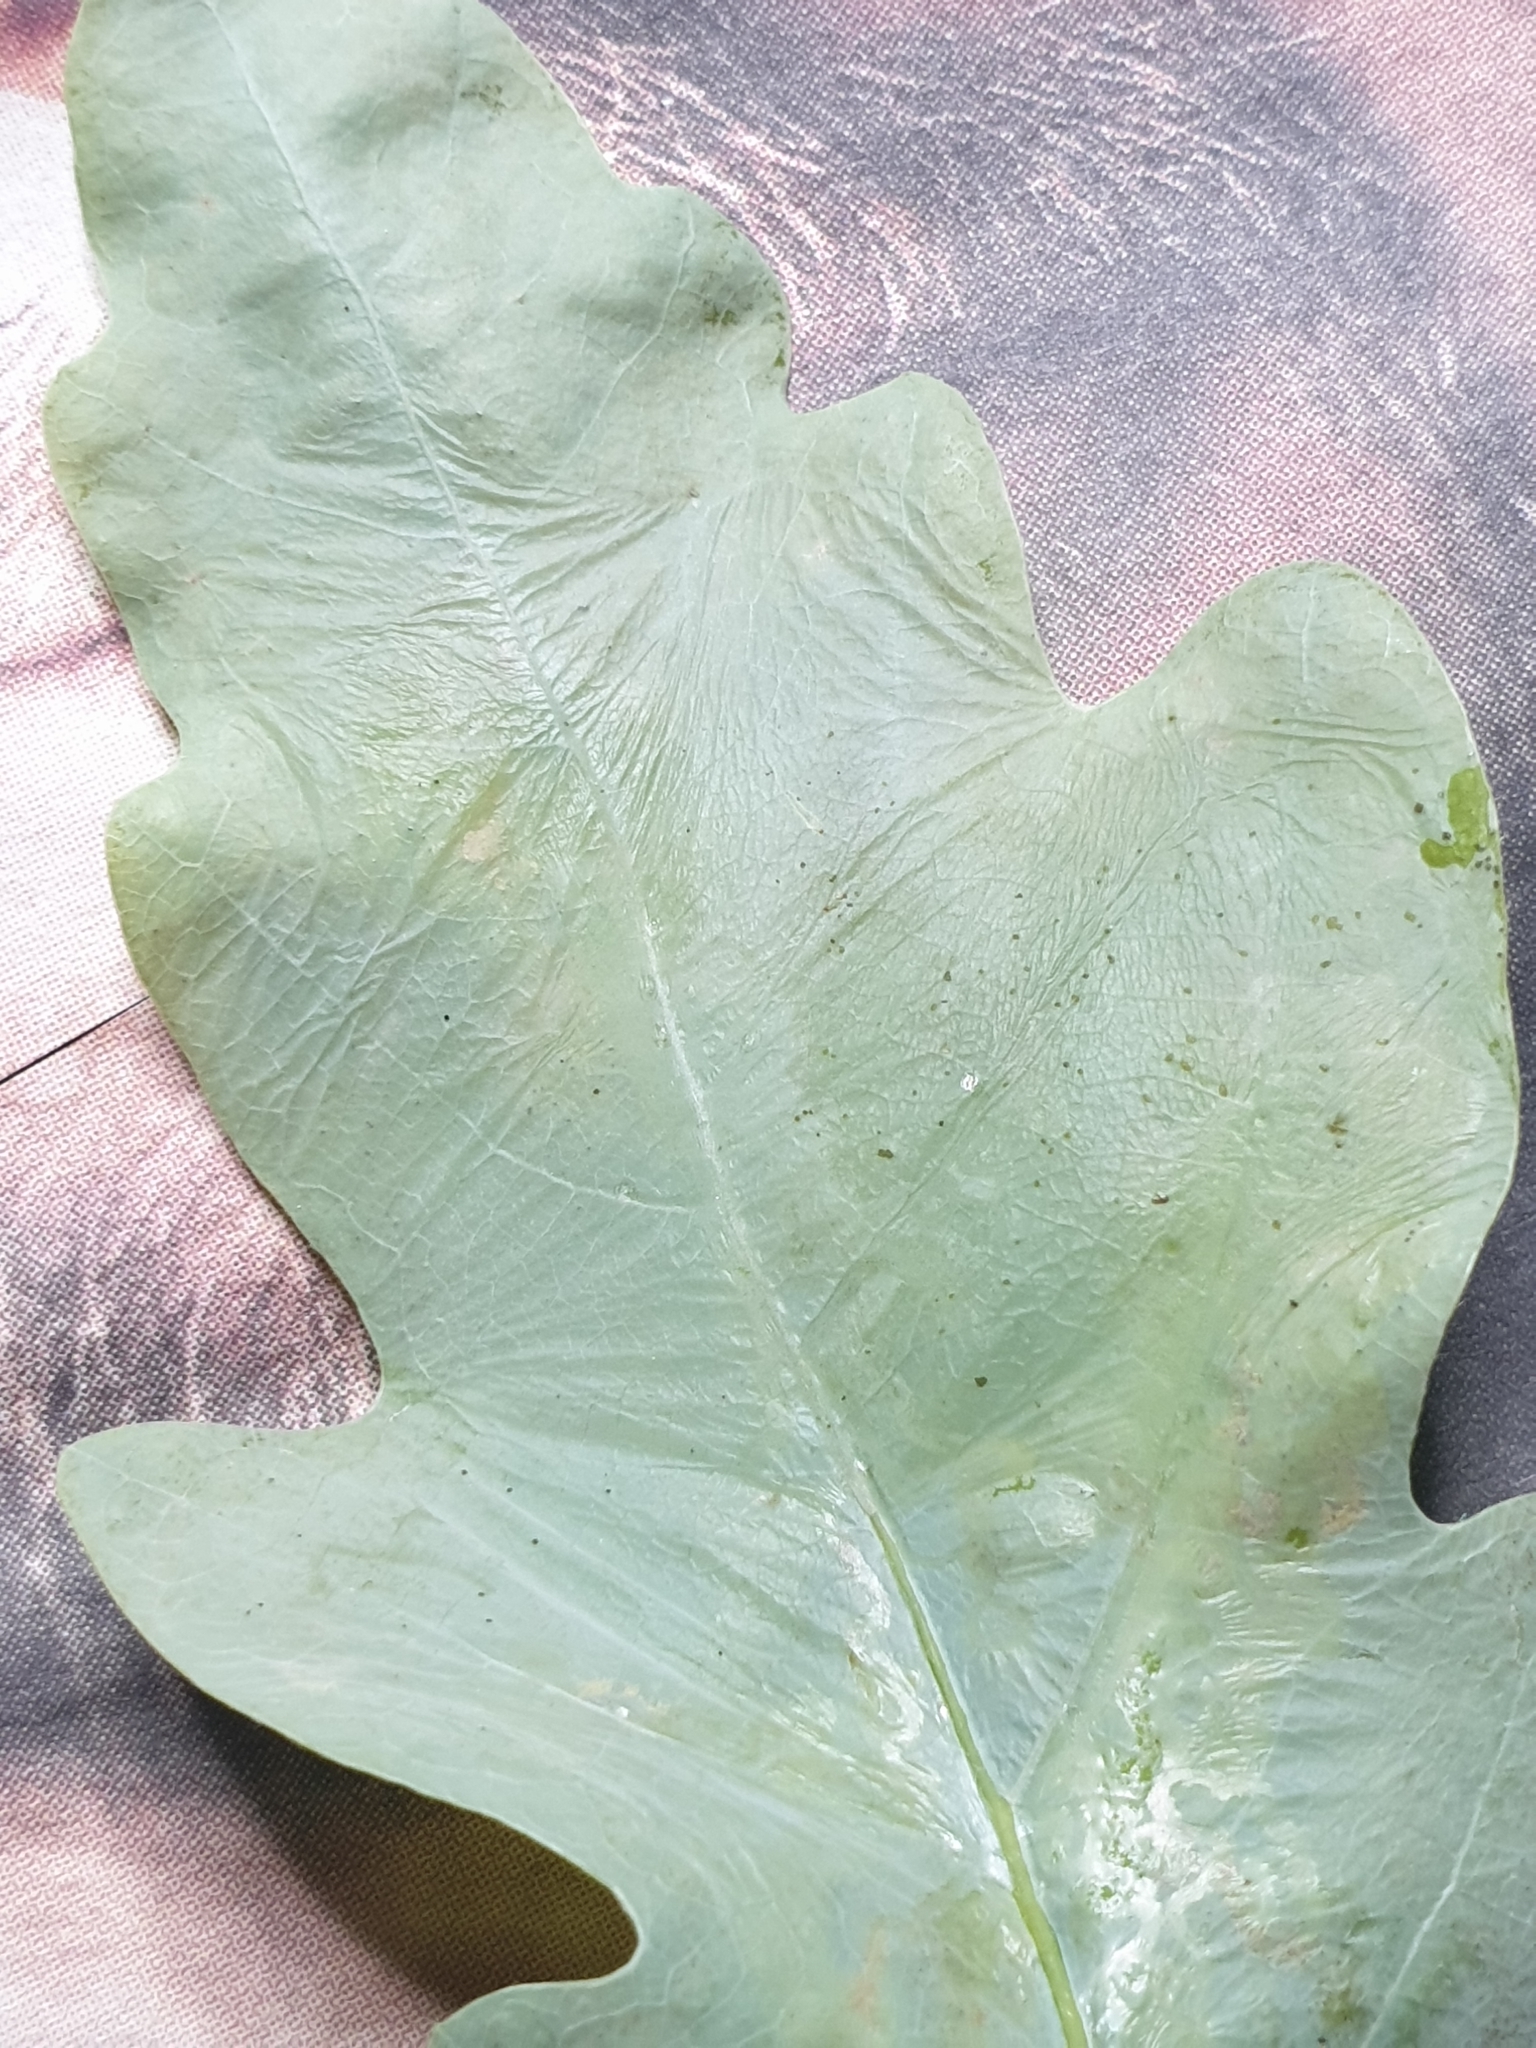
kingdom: Animalia
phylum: Arthropoda
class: Insecta
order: Lepidoptera
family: Gracillariidae
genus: Acrocercops
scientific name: Acrocercops brongniardella
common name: Brown oak slender
